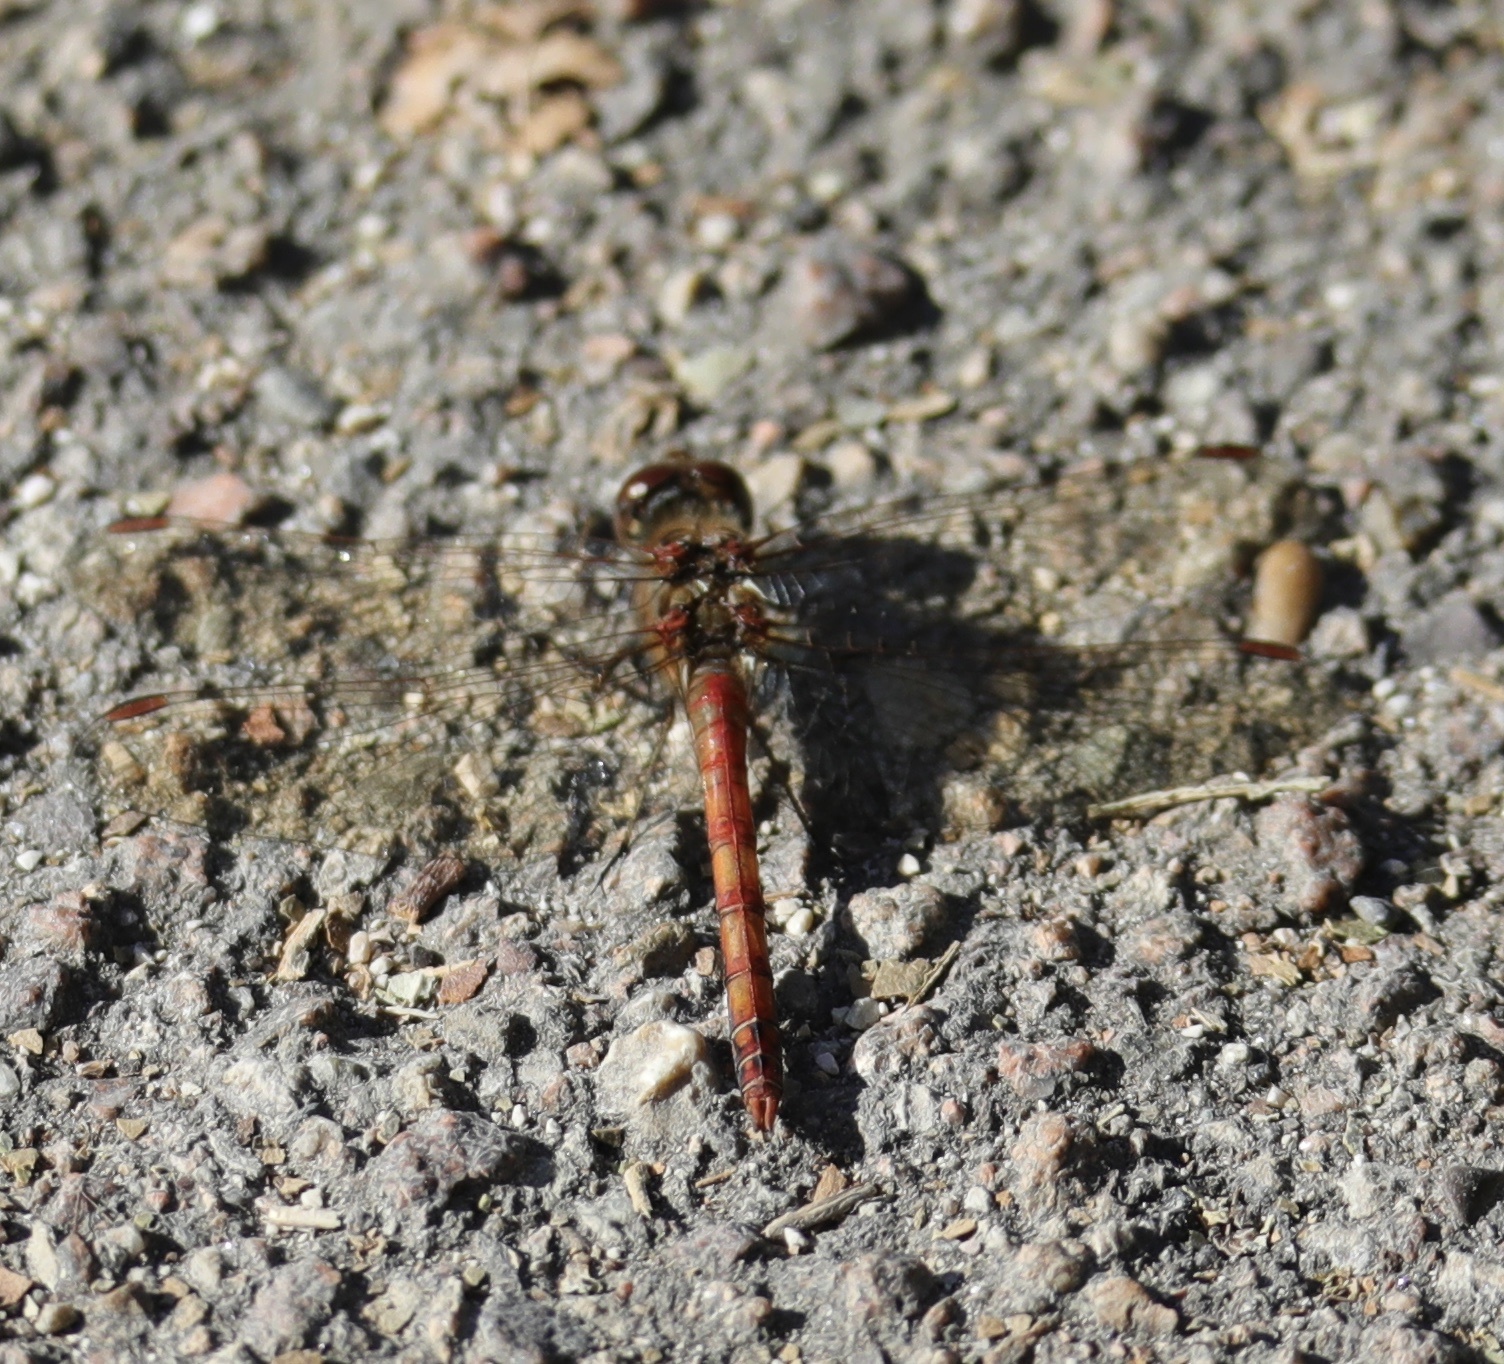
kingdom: Animalia
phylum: Arthropoda
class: Insecta
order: Odonata
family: Libellulidae
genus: Sympetrum
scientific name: Sympetrum striolatum
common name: Common darter
